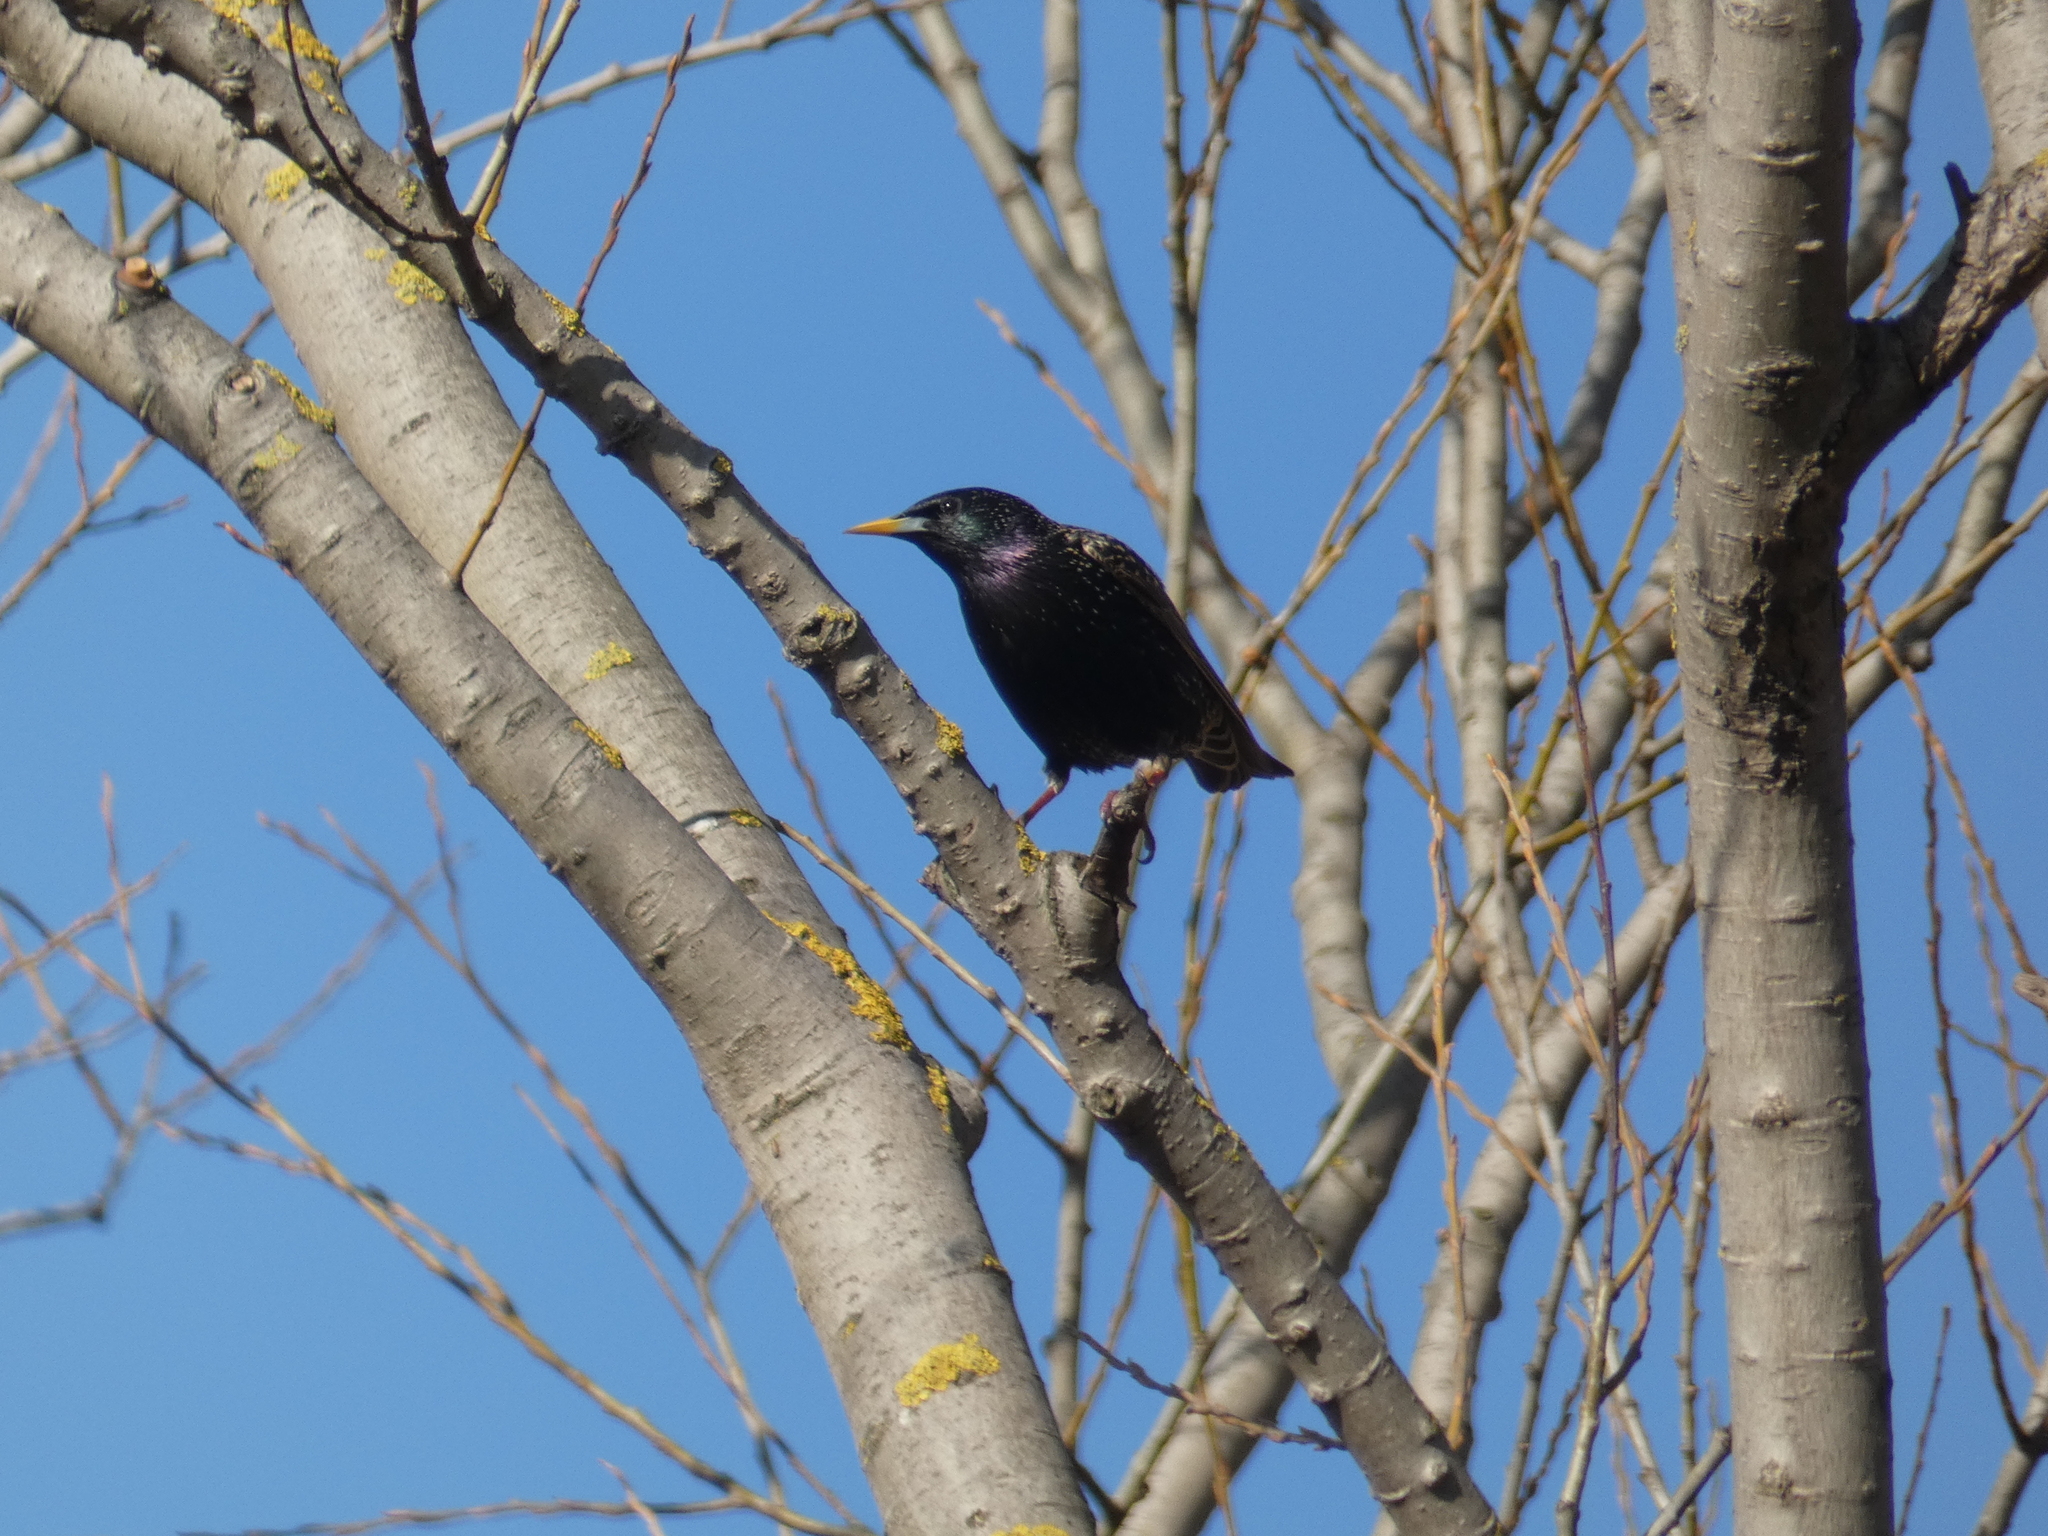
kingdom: Animalia
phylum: Chordata
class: Aves
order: Passeriformes
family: Sturnidae
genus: Sturnus
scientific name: Sturnus vulgaris
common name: Common starling
